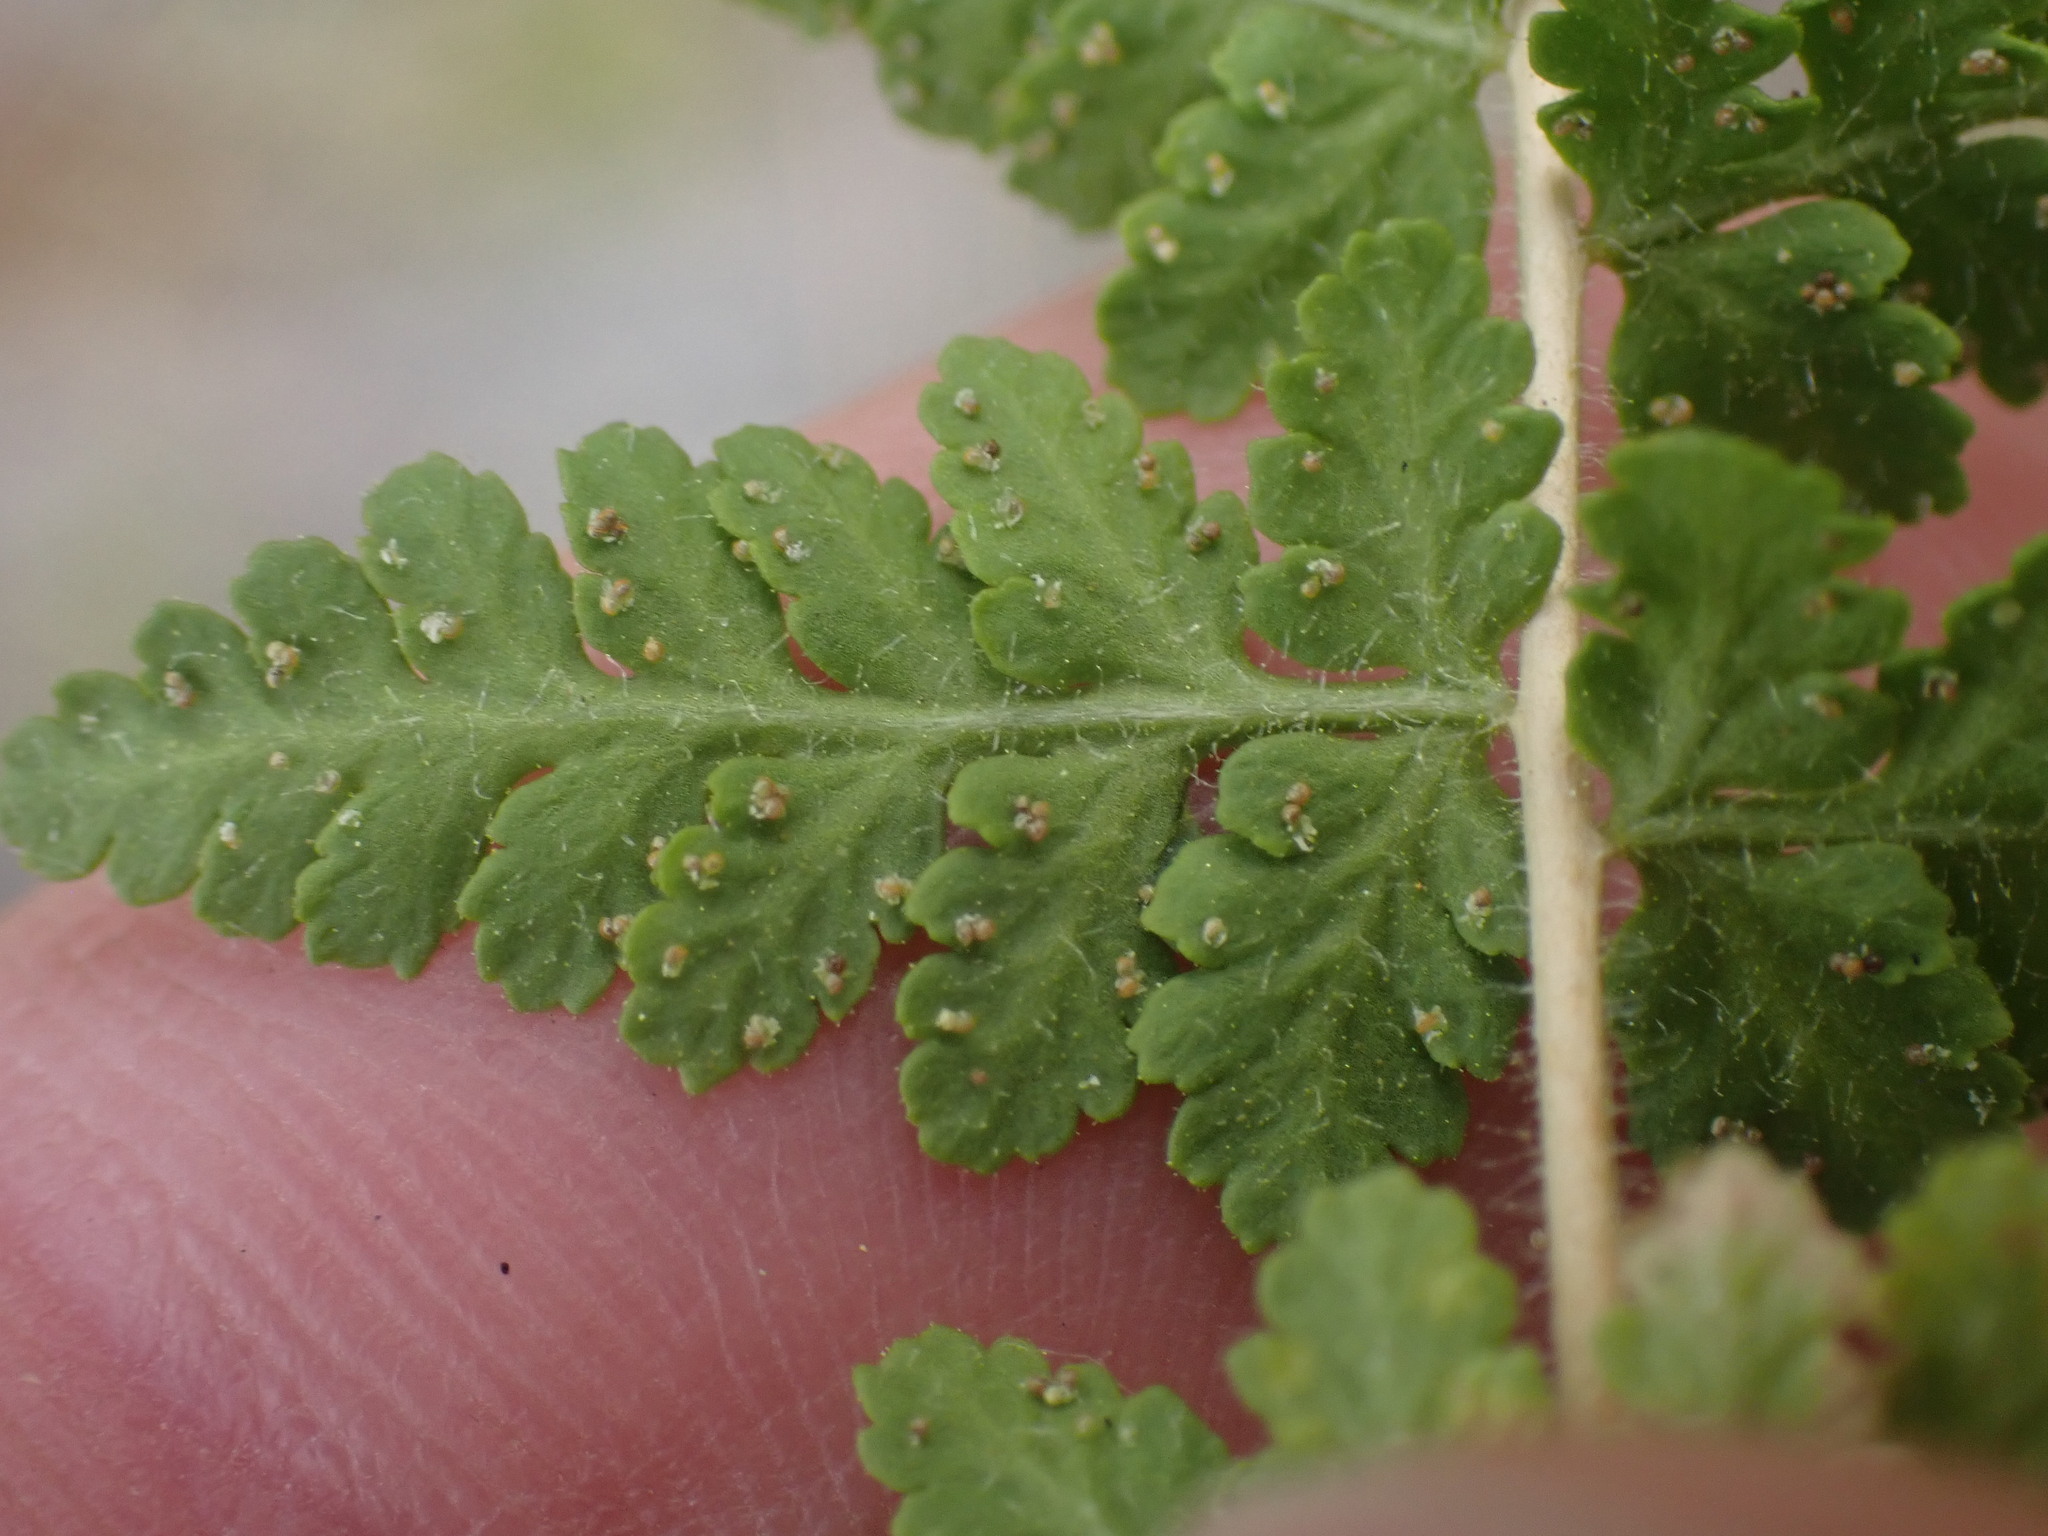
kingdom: Plantae
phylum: Tracheophyta
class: Polypodiopsida
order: Polypodiales
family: Woodsiaceae
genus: Physematium
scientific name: Physematium scopulinum
